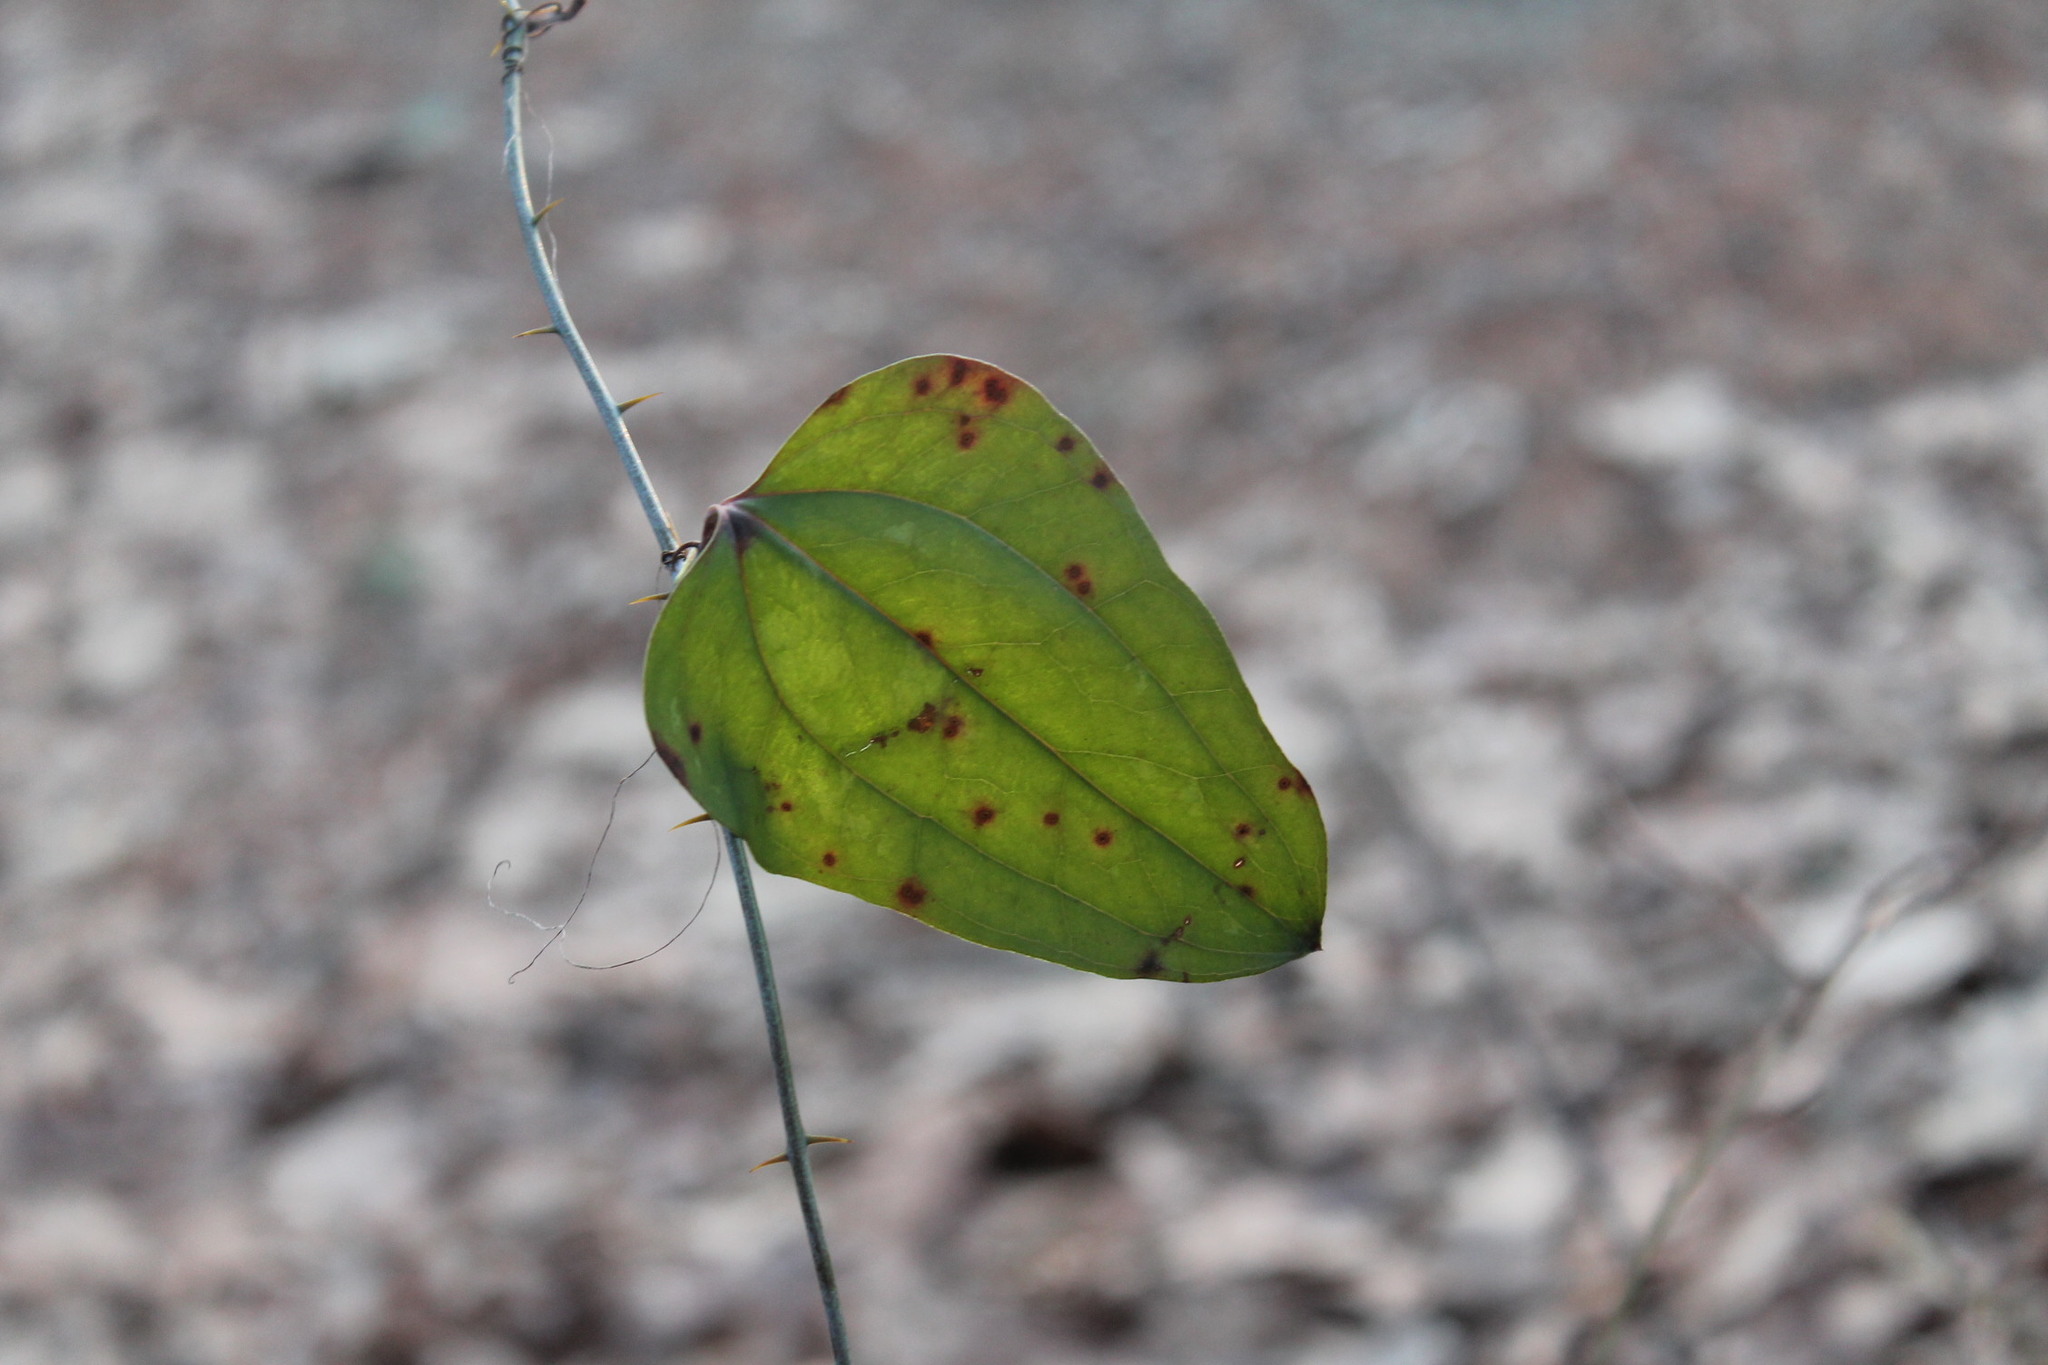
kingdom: Plantae
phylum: Tracheophyta
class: Liliopsida
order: Liliales
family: Smilacaceae
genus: Smilax
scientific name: Smilax glauca
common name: Cat greenbrier
